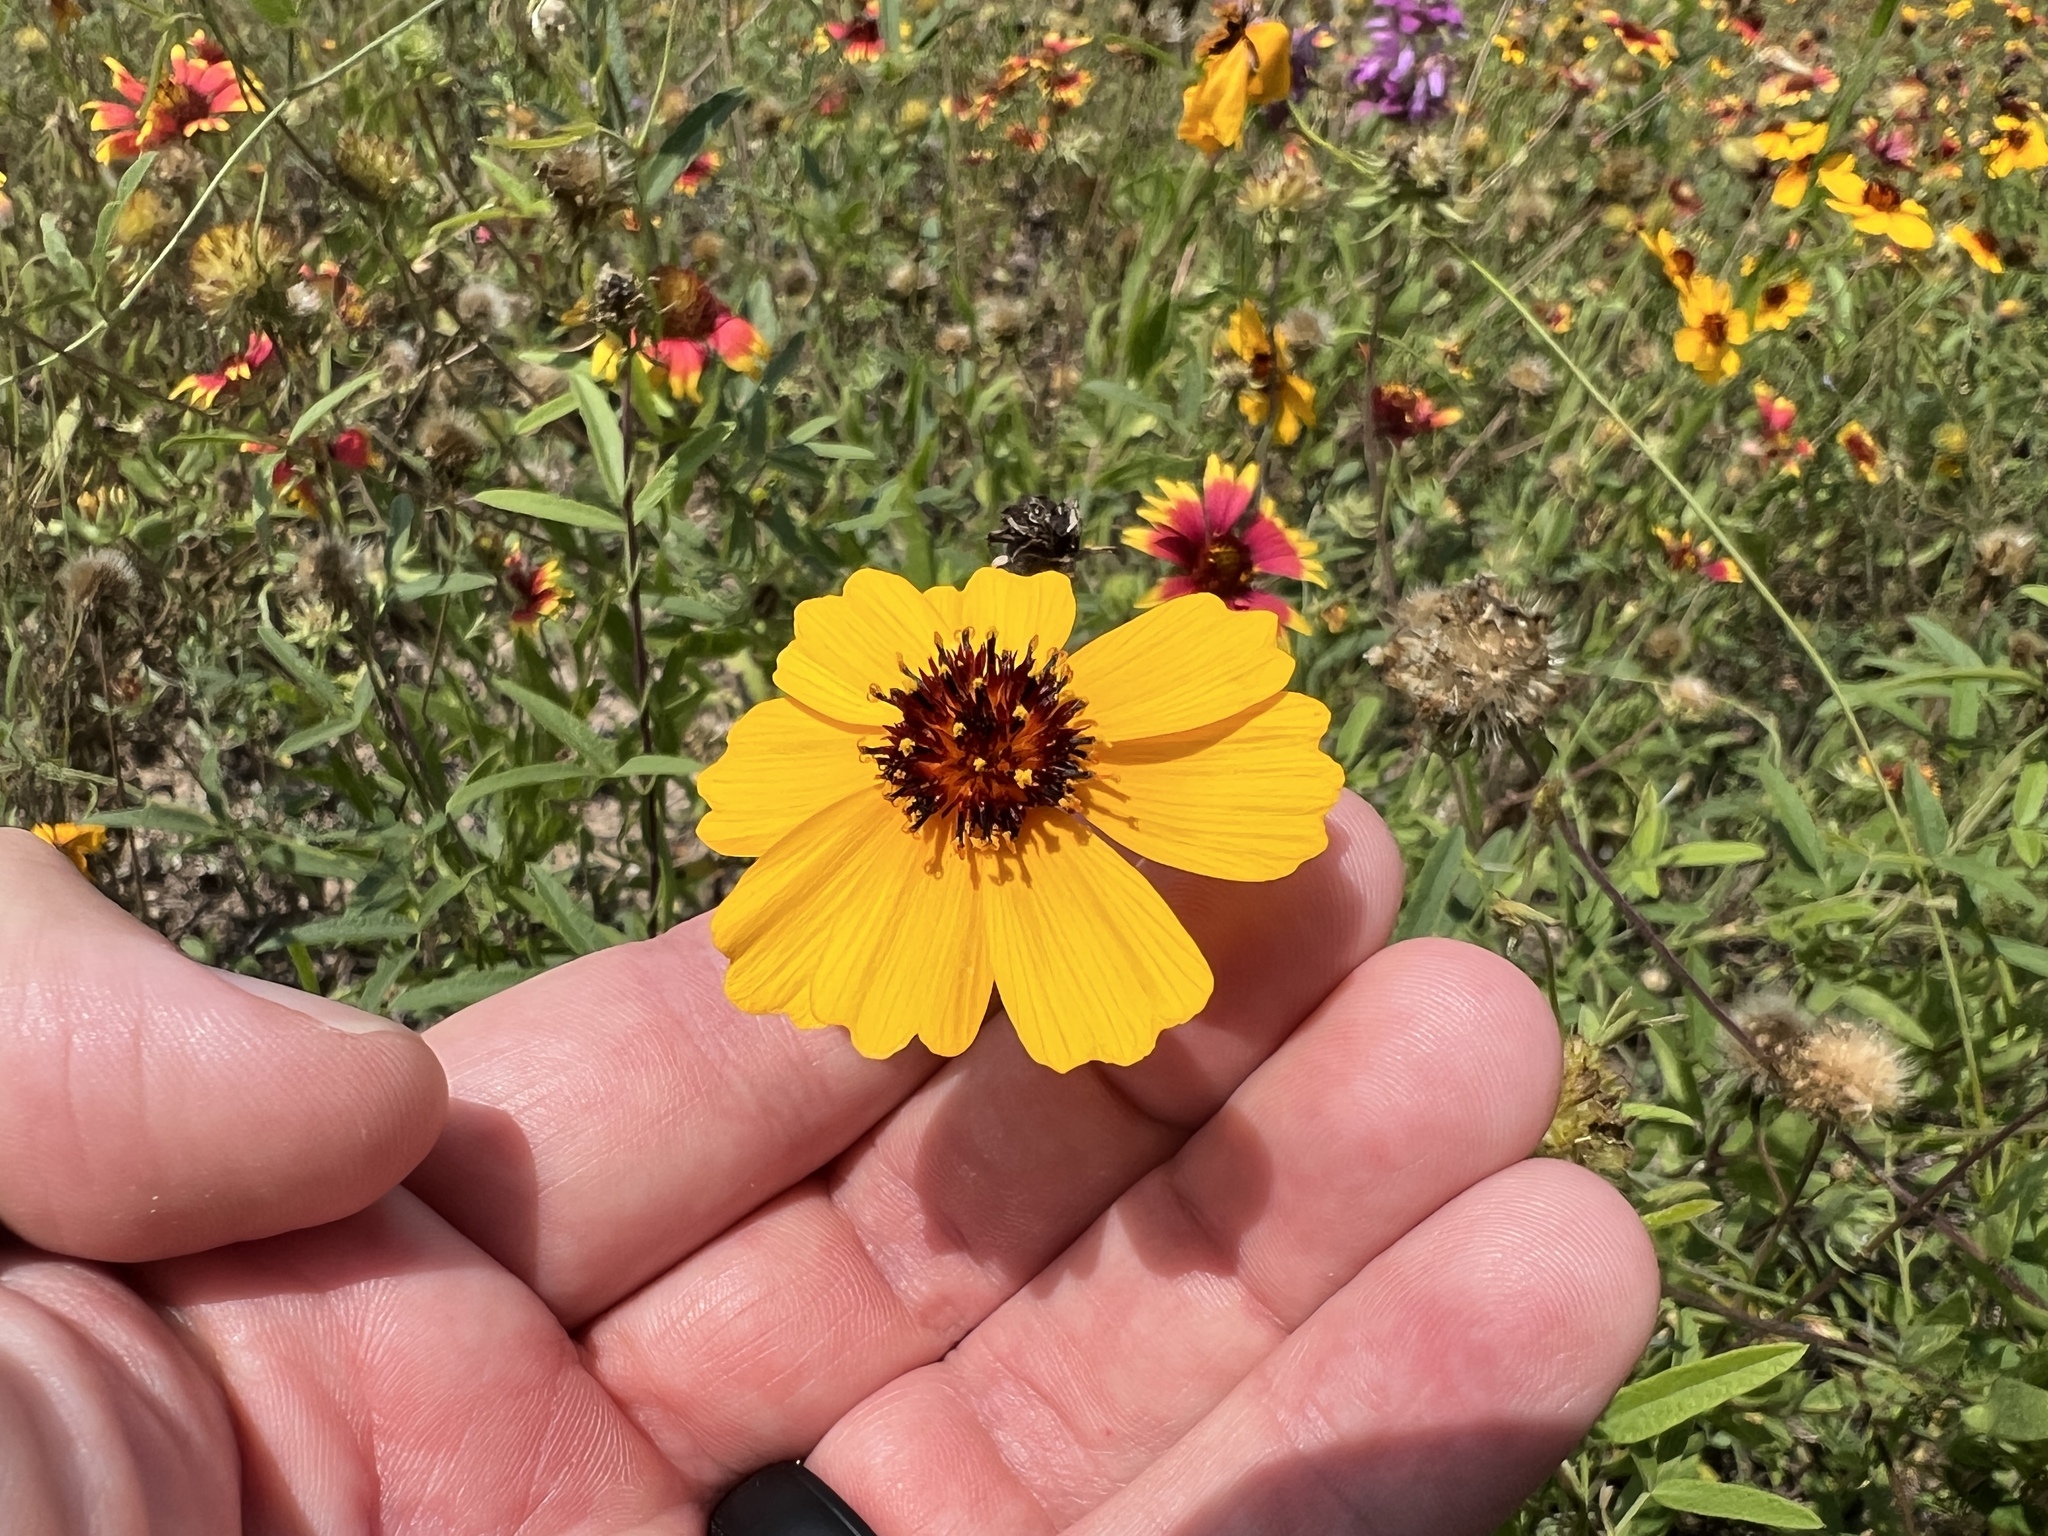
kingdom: Plantae
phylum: Tracheophyta
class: Magnoliopsida
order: Asterales
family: Asteraceae
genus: Thelesperma
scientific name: Thelesperma filifolium
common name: Stiff greenthread
